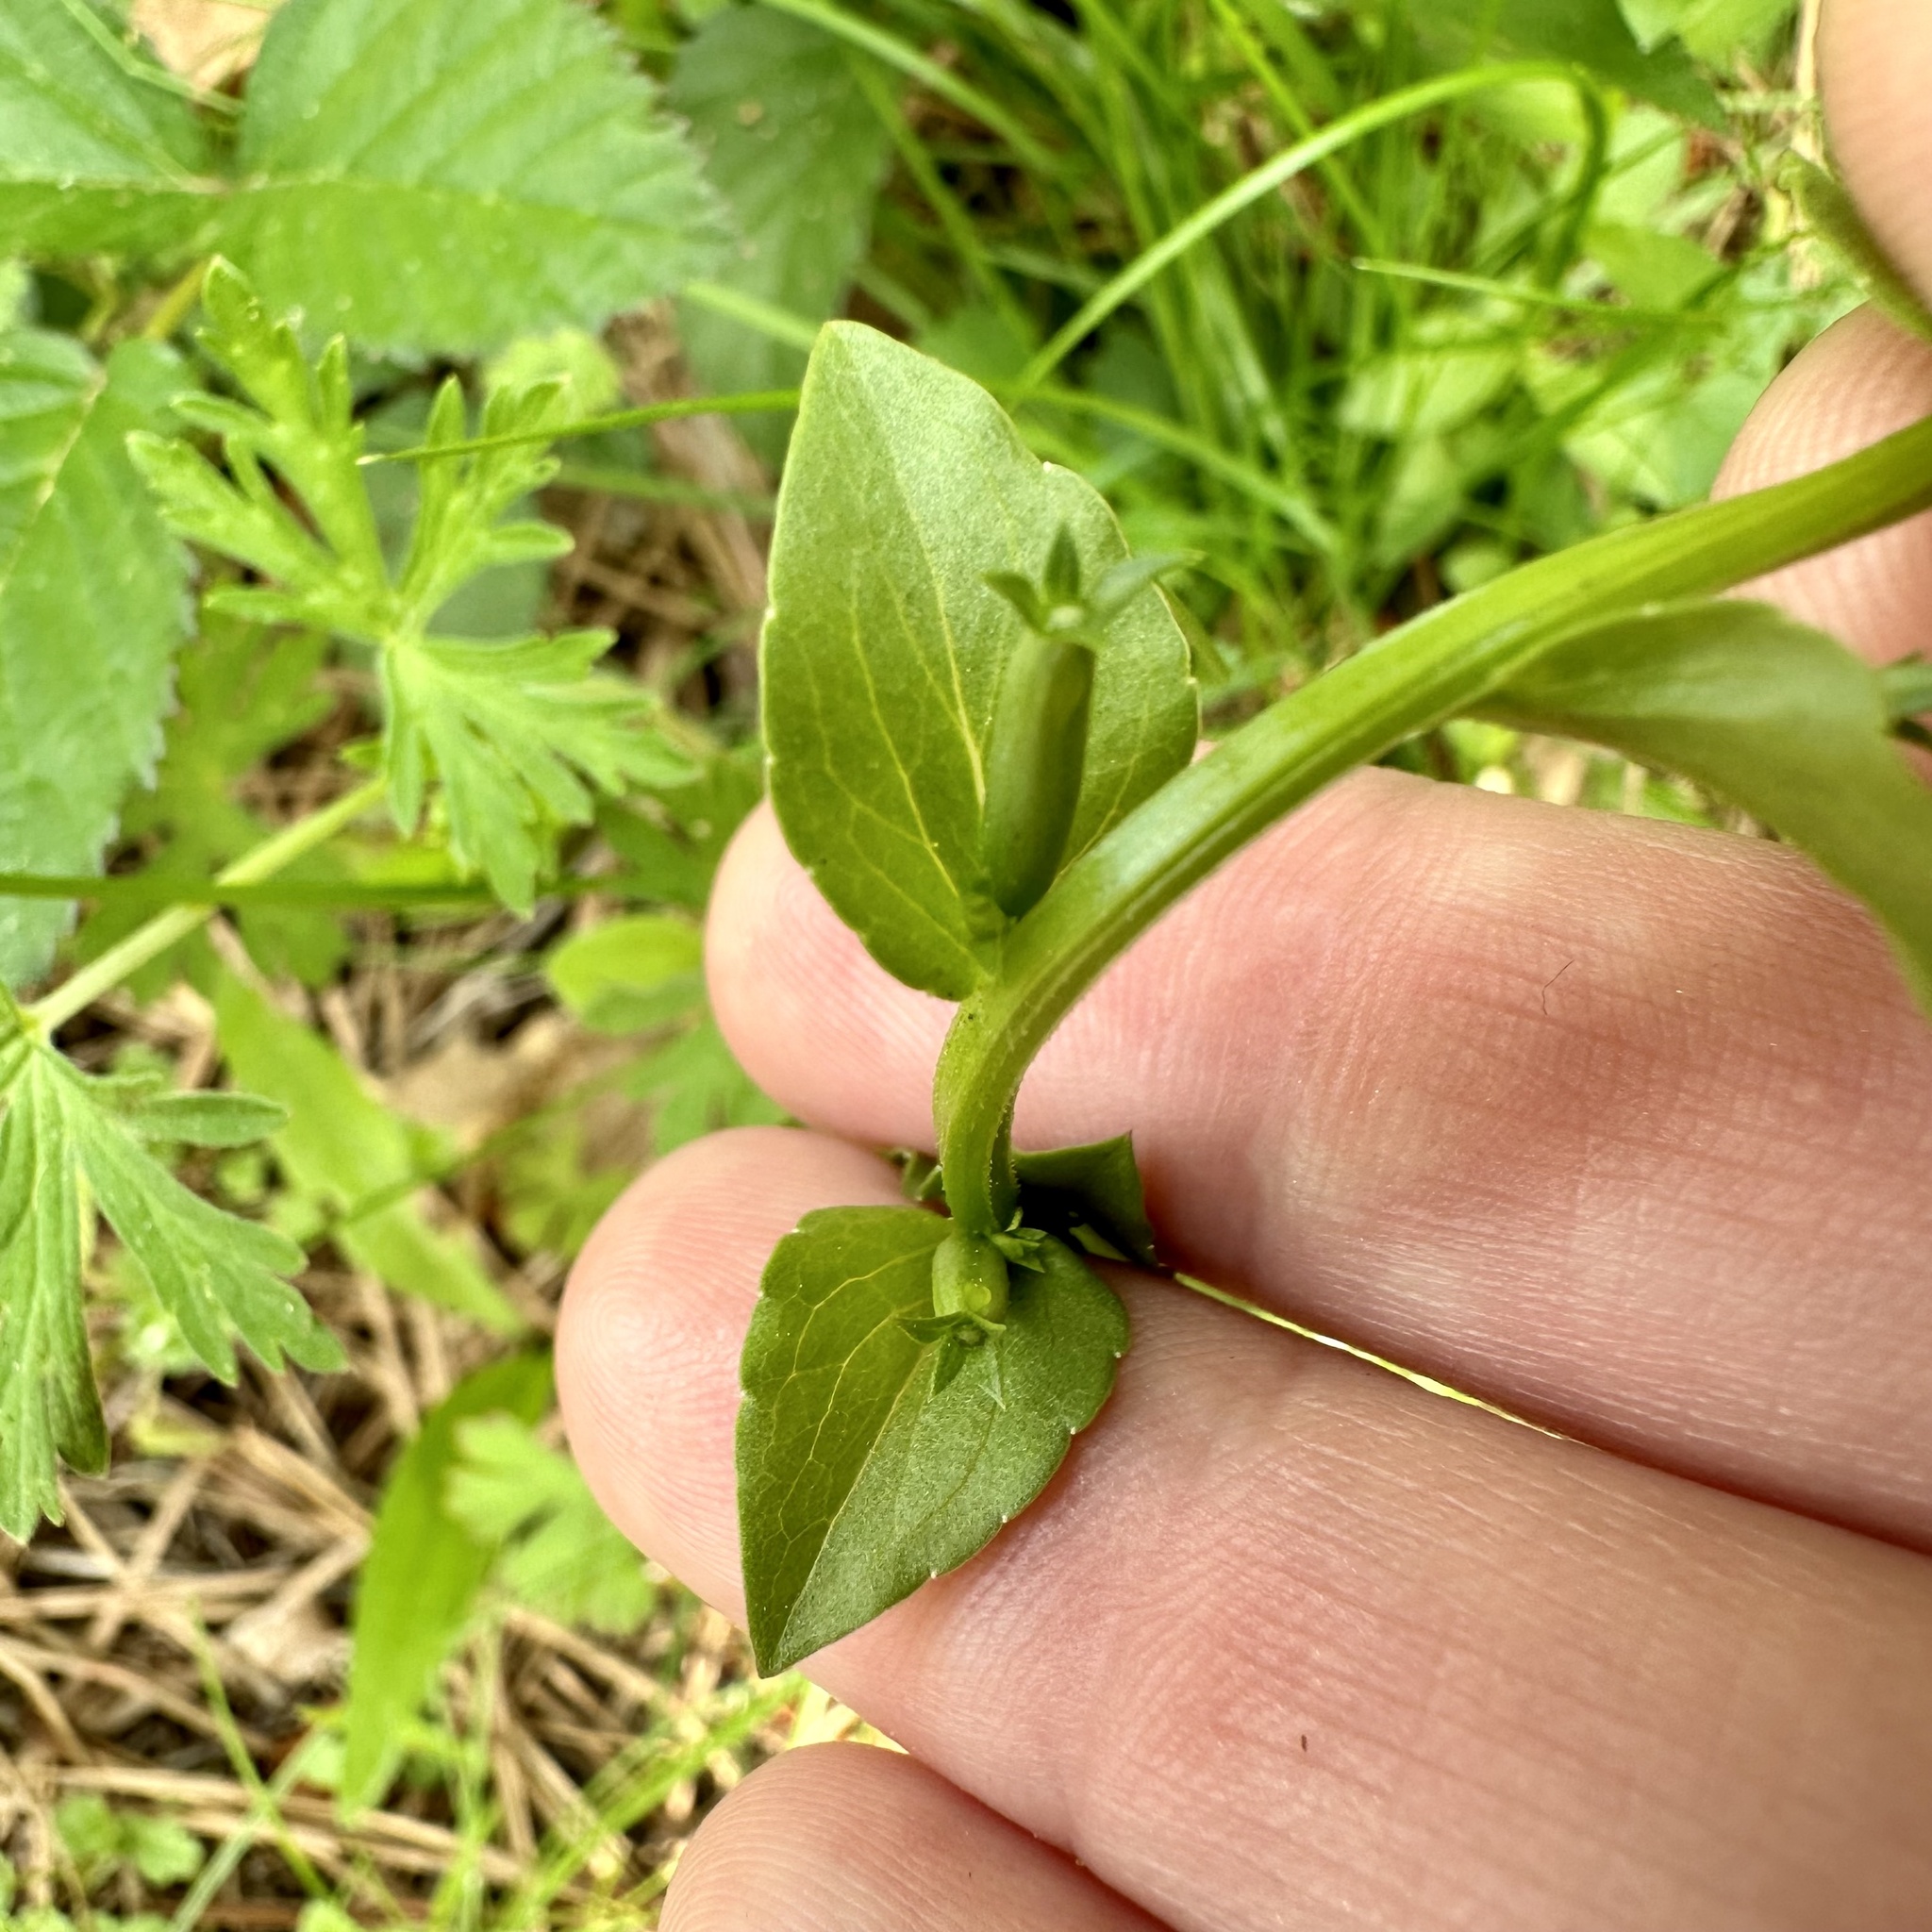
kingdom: Plantae
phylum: Tracheophyta
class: Magnoliopsida
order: Asterales
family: Campanulaceae
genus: Triodanis
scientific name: Triodanis biflora
